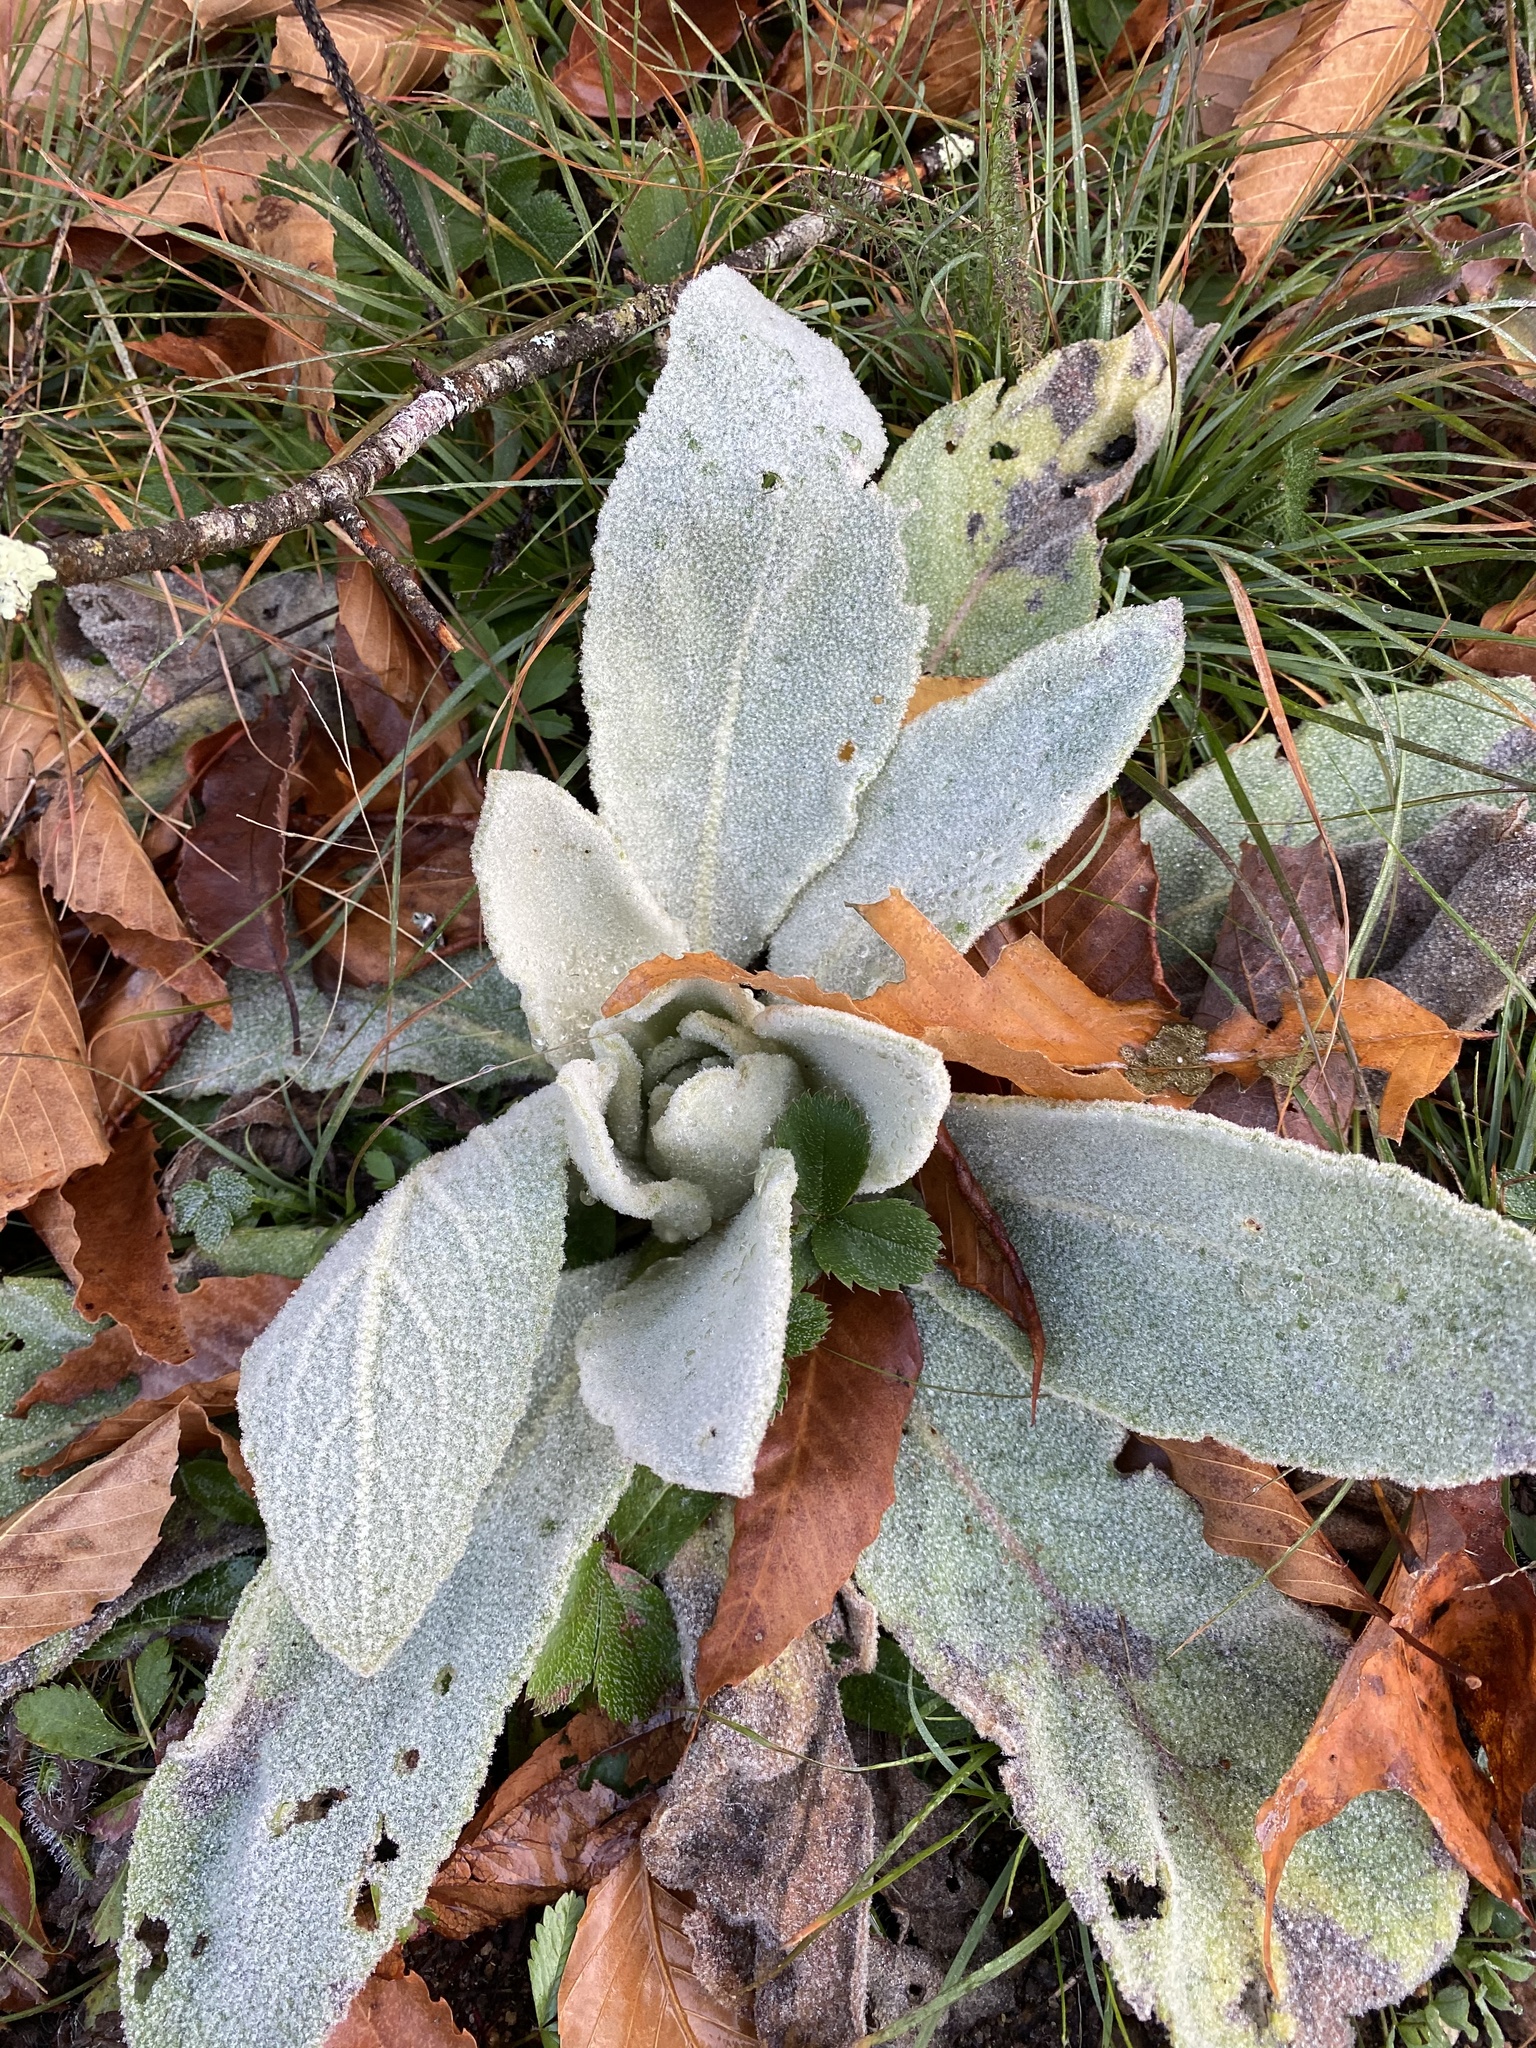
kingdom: Plantae
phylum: Tracheophyta
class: Magnoliopsida
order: Lamiales
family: Scrophulariaceae
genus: Verbascum
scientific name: Verbascum thapsus
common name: Common mullein
